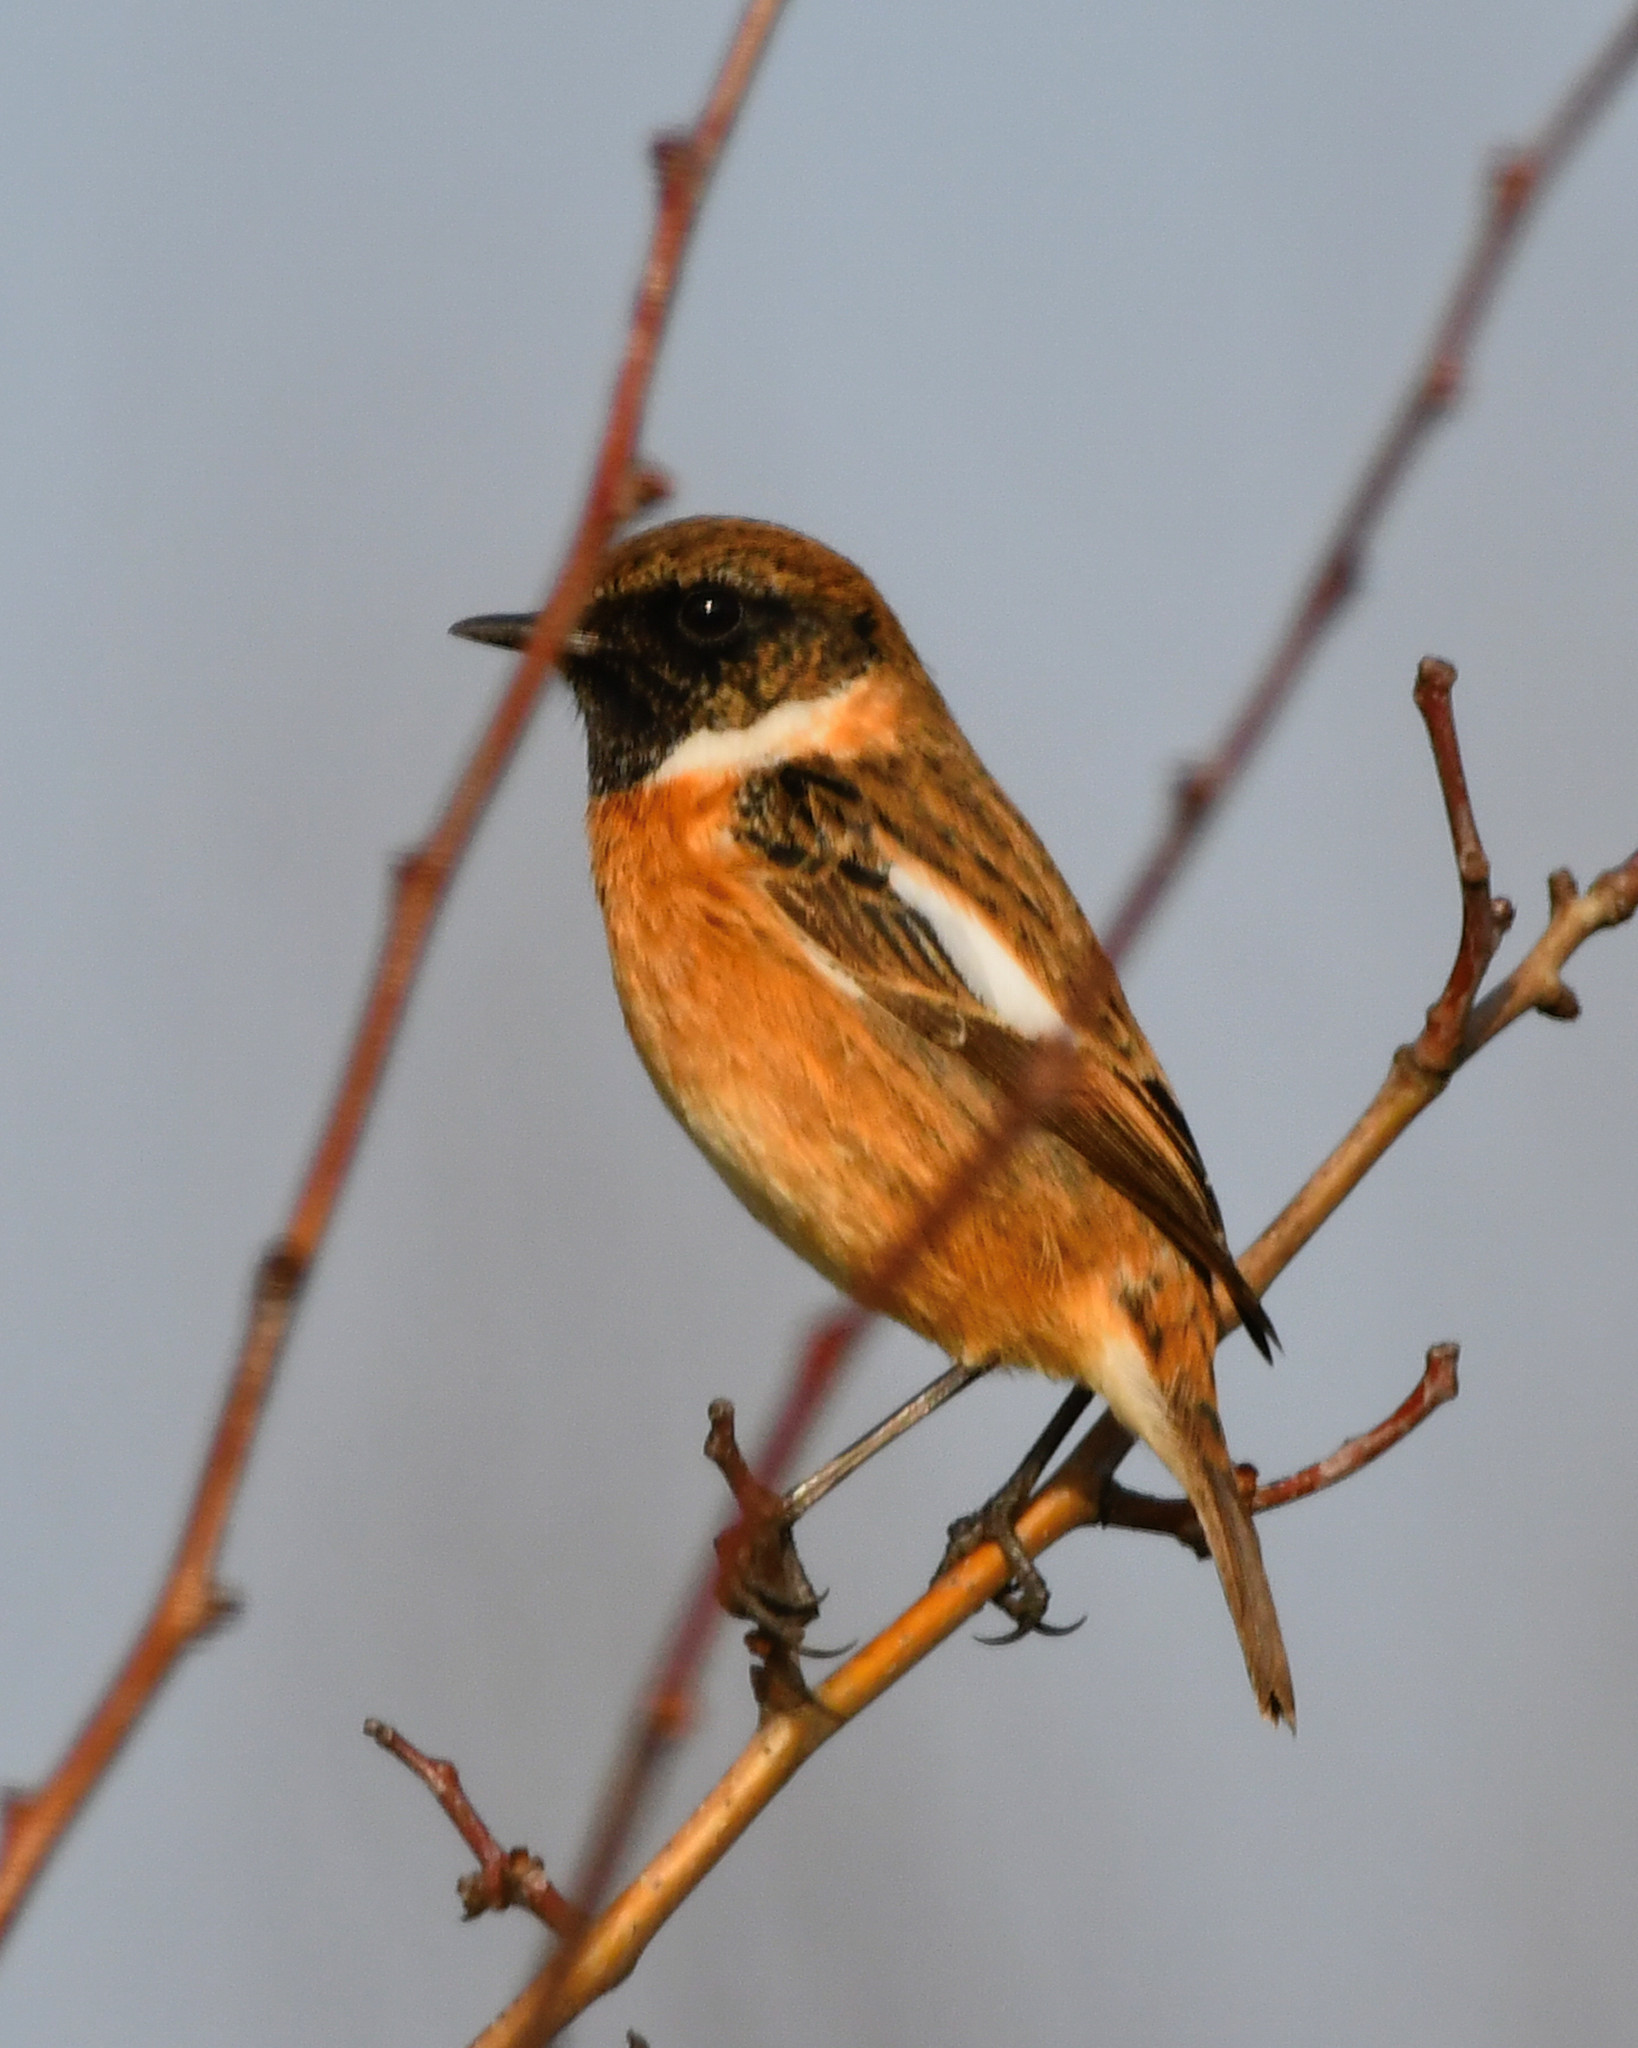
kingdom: Animalia
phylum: Chordata
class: Aves
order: Passeriformes
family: Muscicapidae
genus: Saxicola
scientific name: Saxicola rubicola
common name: European stonechat
